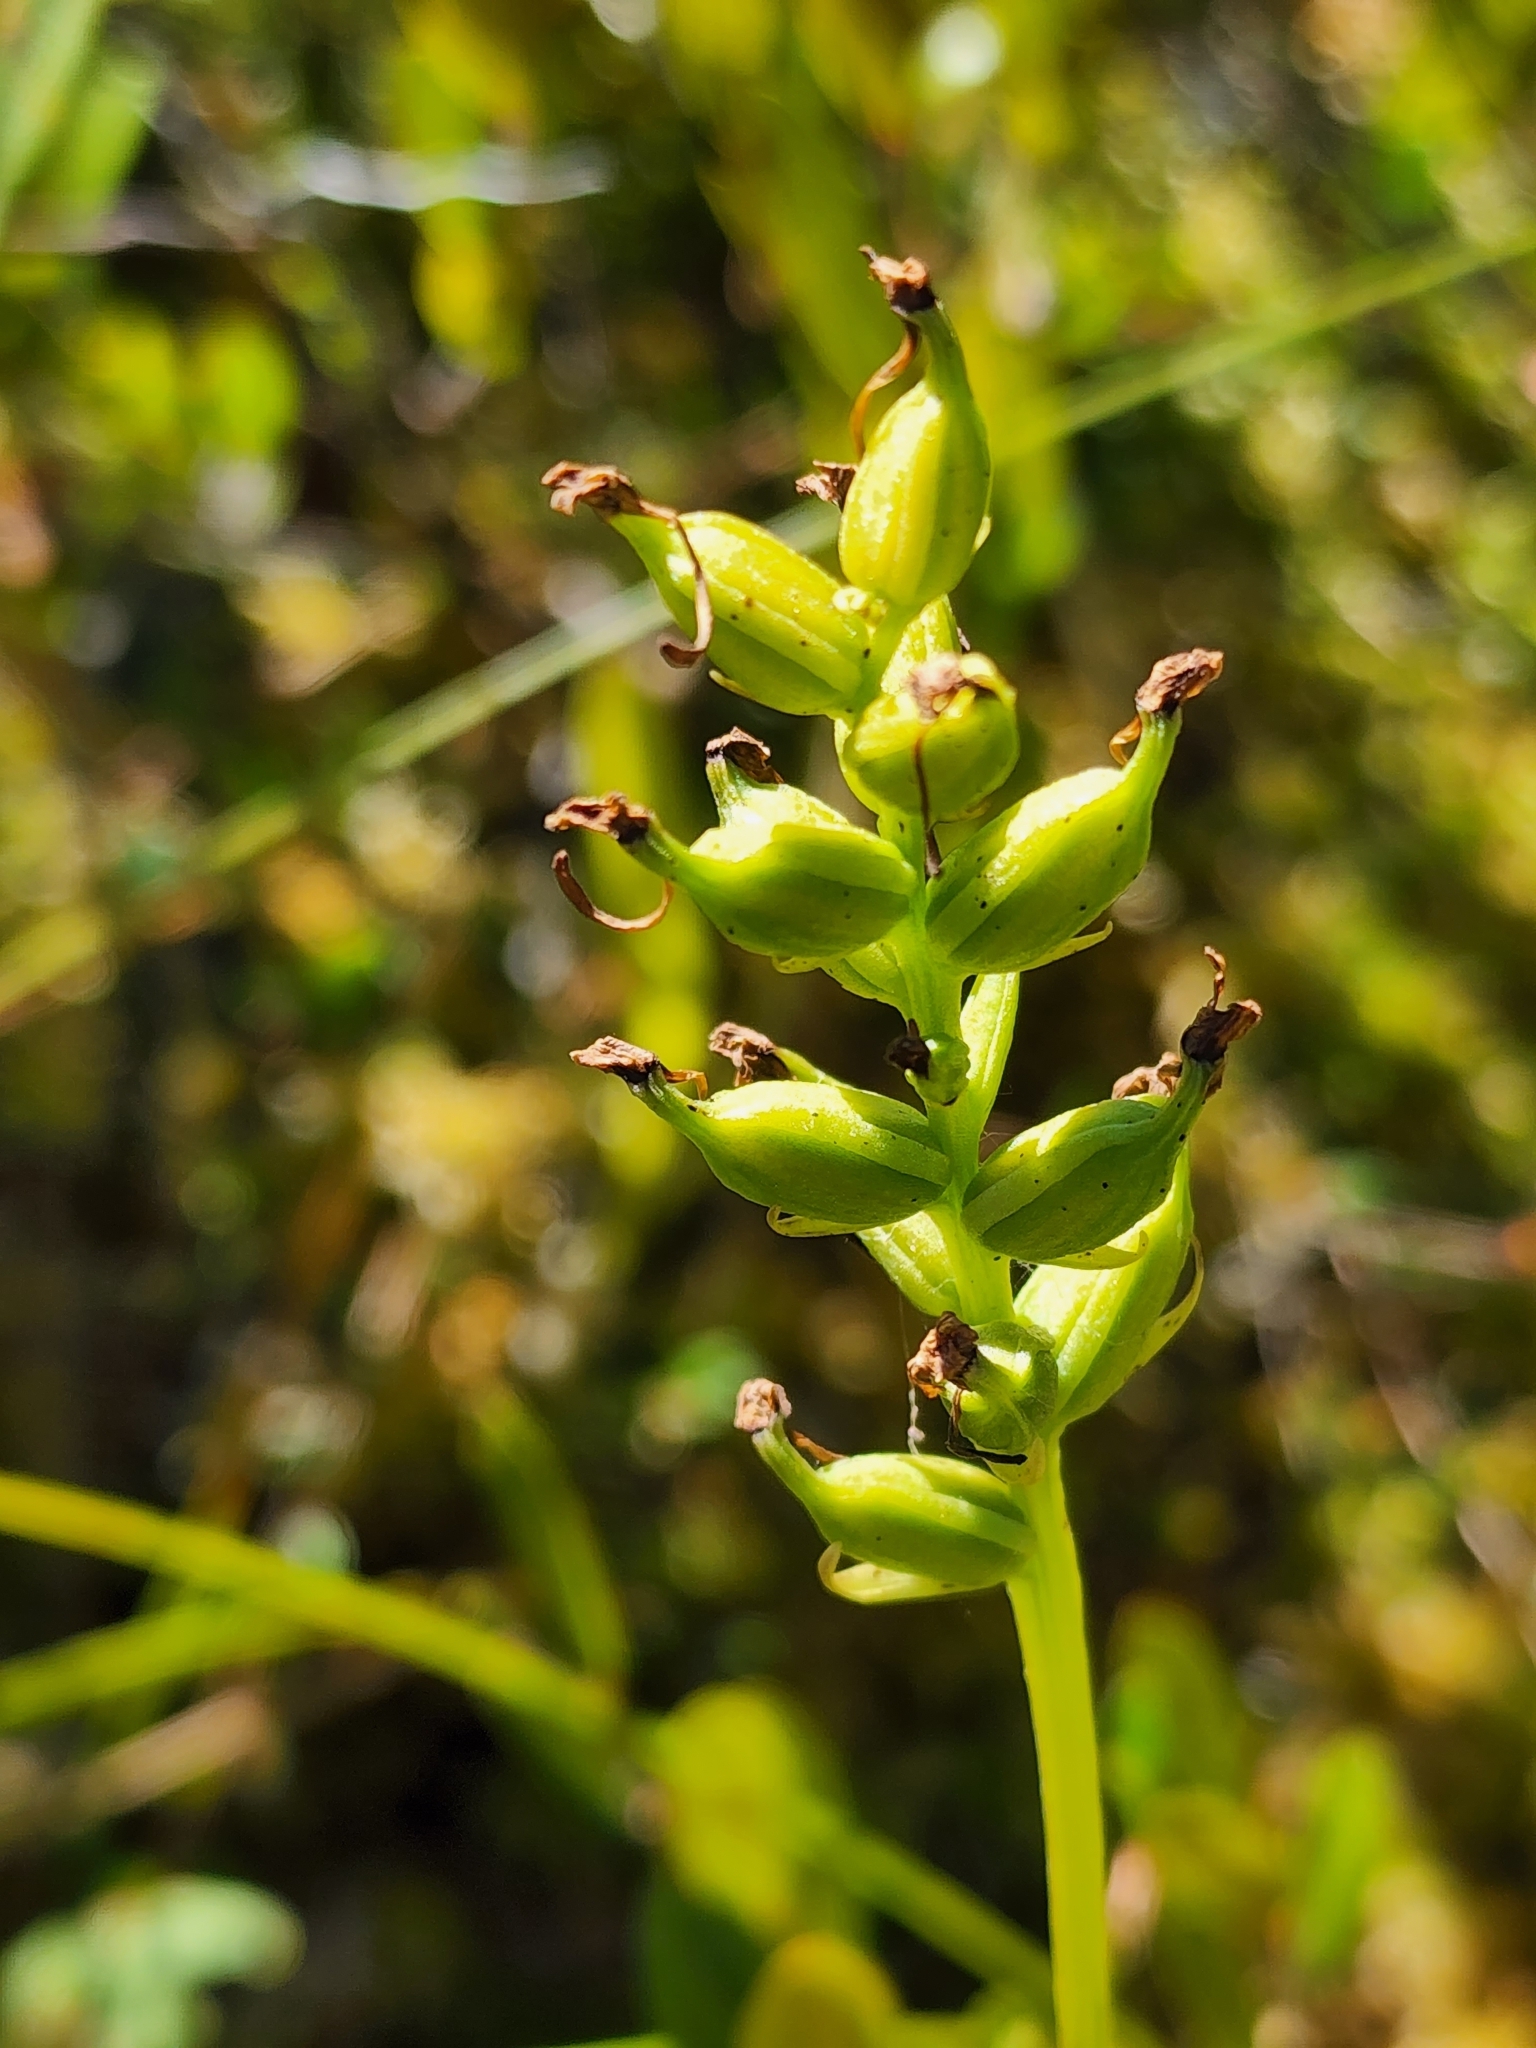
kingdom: Plantae
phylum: Tracheophyta
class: Liliopsida
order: Asparagales
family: Orchidaceae
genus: Platanthera
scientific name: Platanthera clavellata
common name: Club-spur orchid
